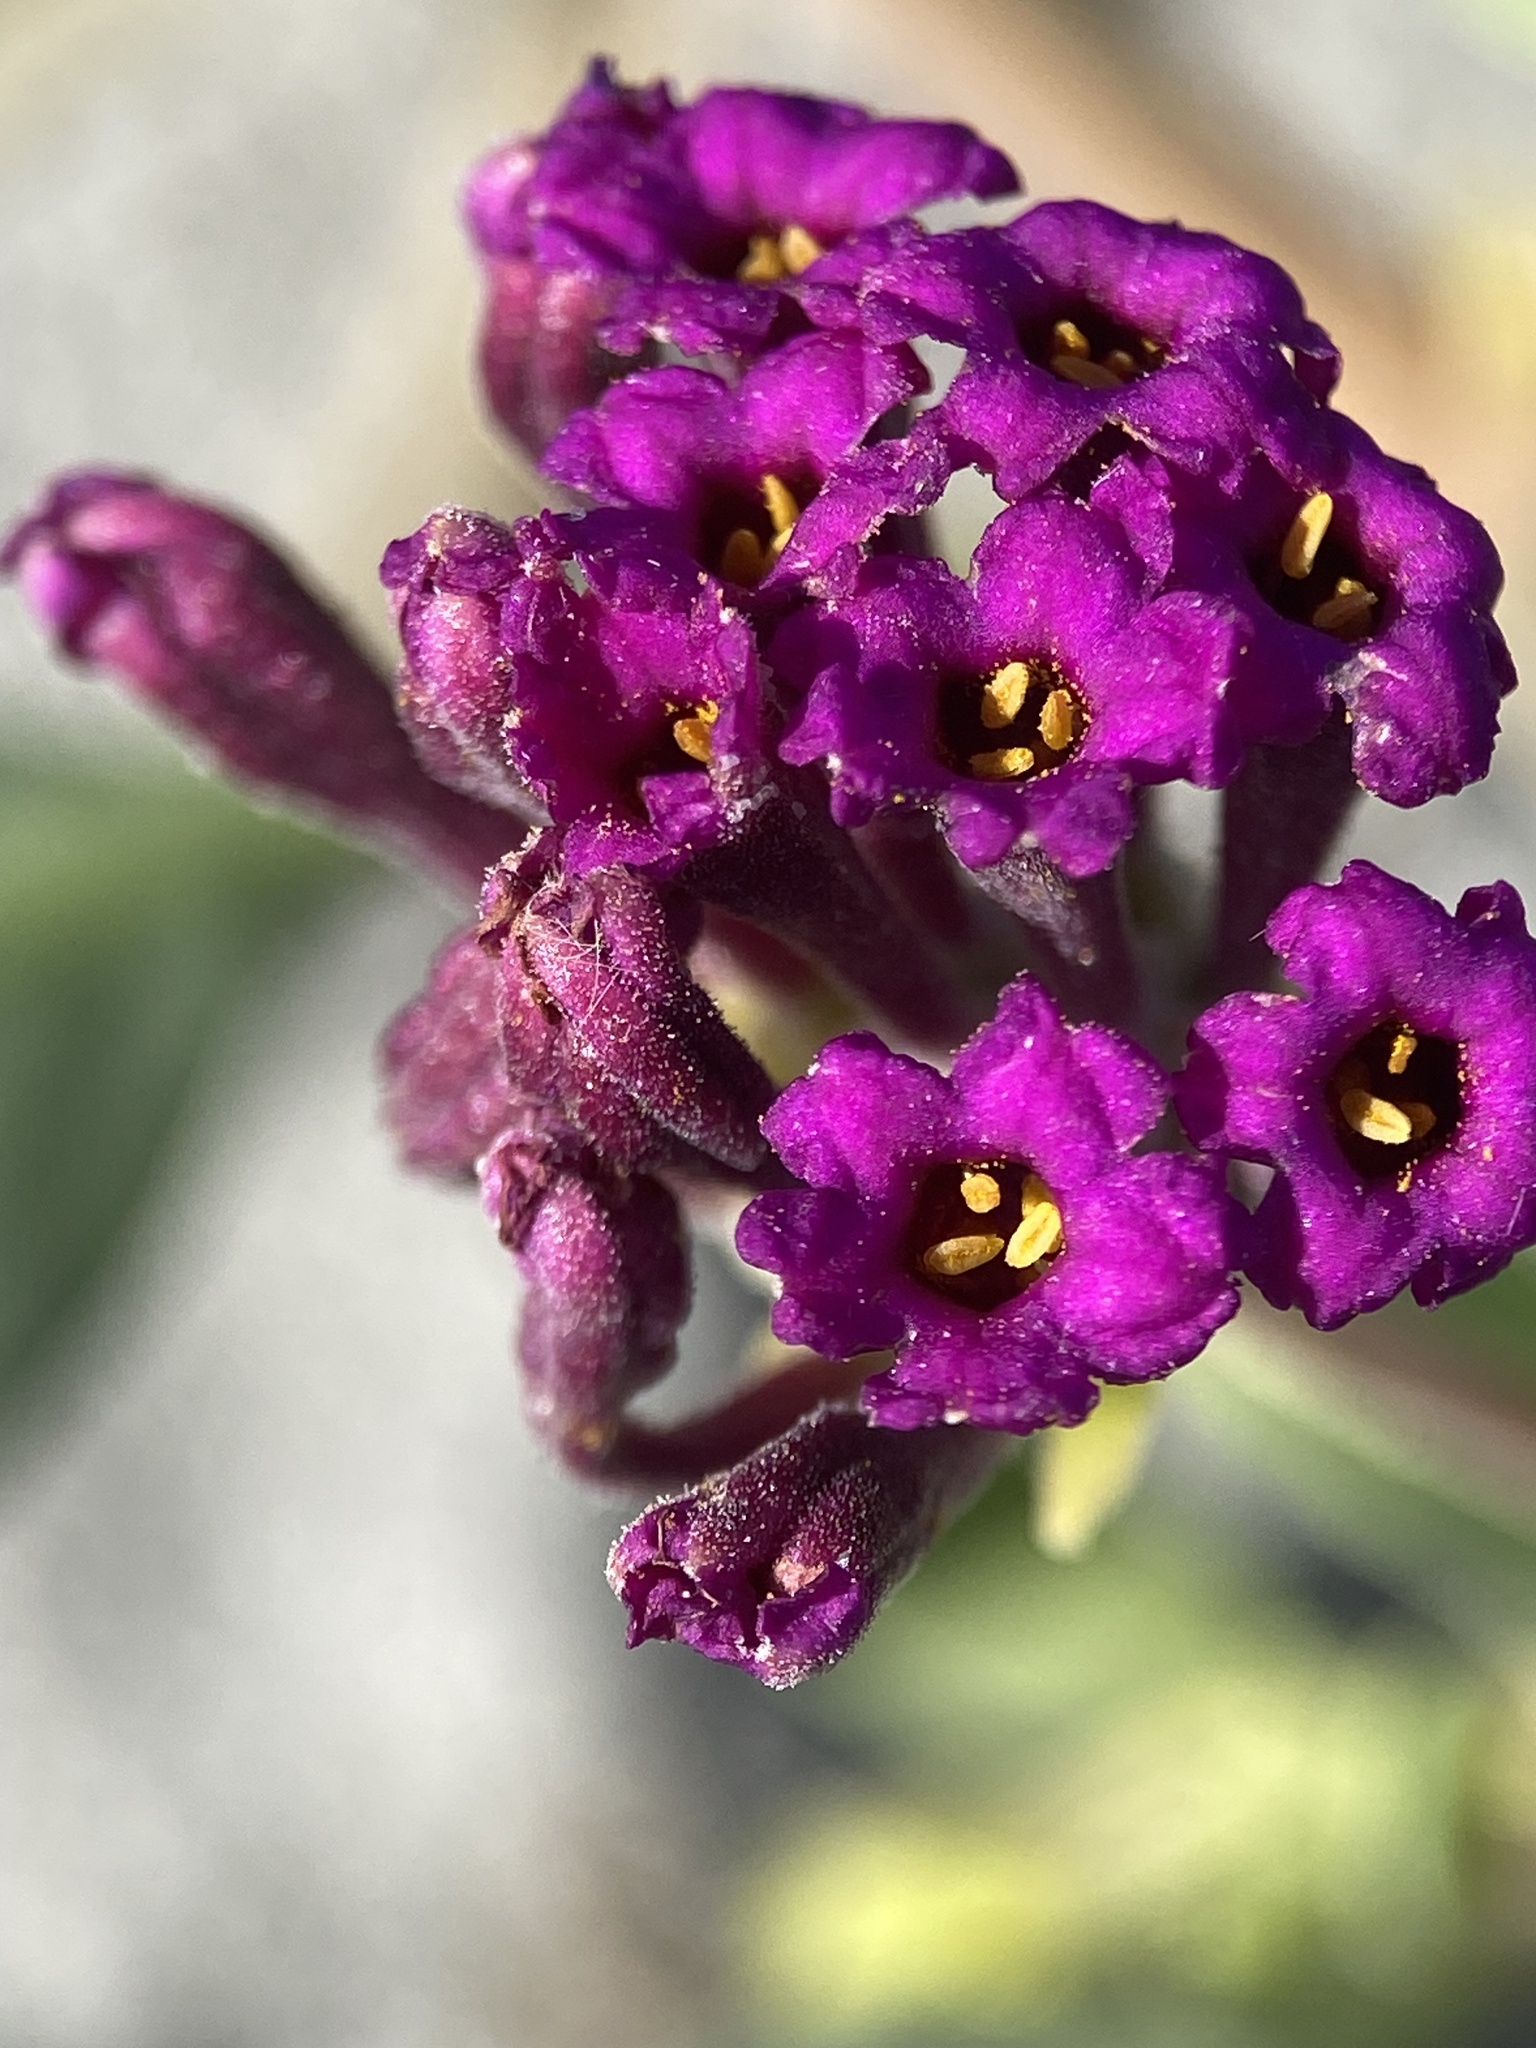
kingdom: Plantae
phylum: Tracheophyta
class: Magnoliopsida
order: Caryophyllales
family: Nyctaginaceae
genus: Abronia
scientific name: Abronia maritima
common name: Red sand-verbena
